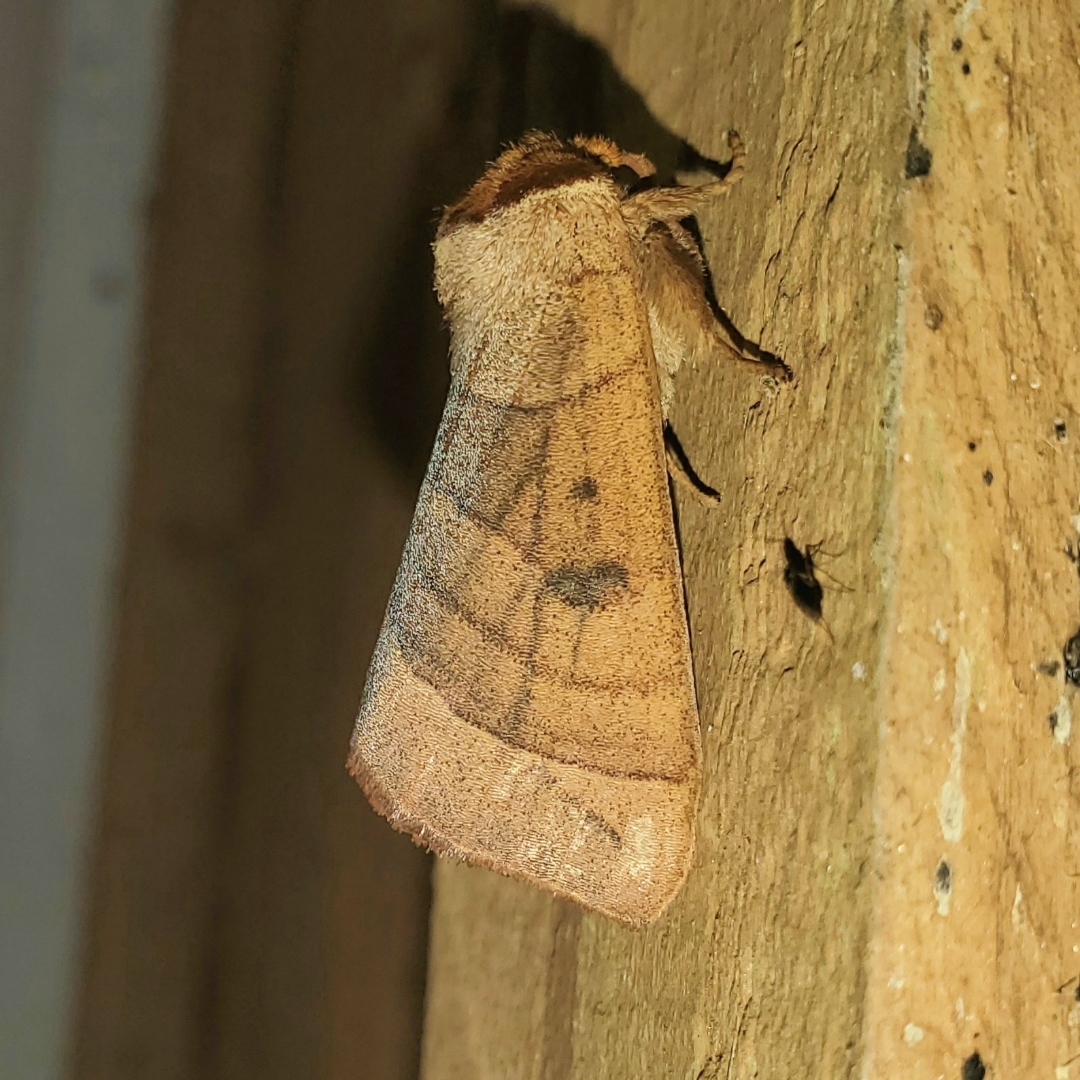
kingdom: Animalia
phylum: Arthropoda
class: Insecta
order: Lepidoptera
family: Notodontidae
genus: Datana
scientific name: Datana perspicua
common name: Spotted datana
